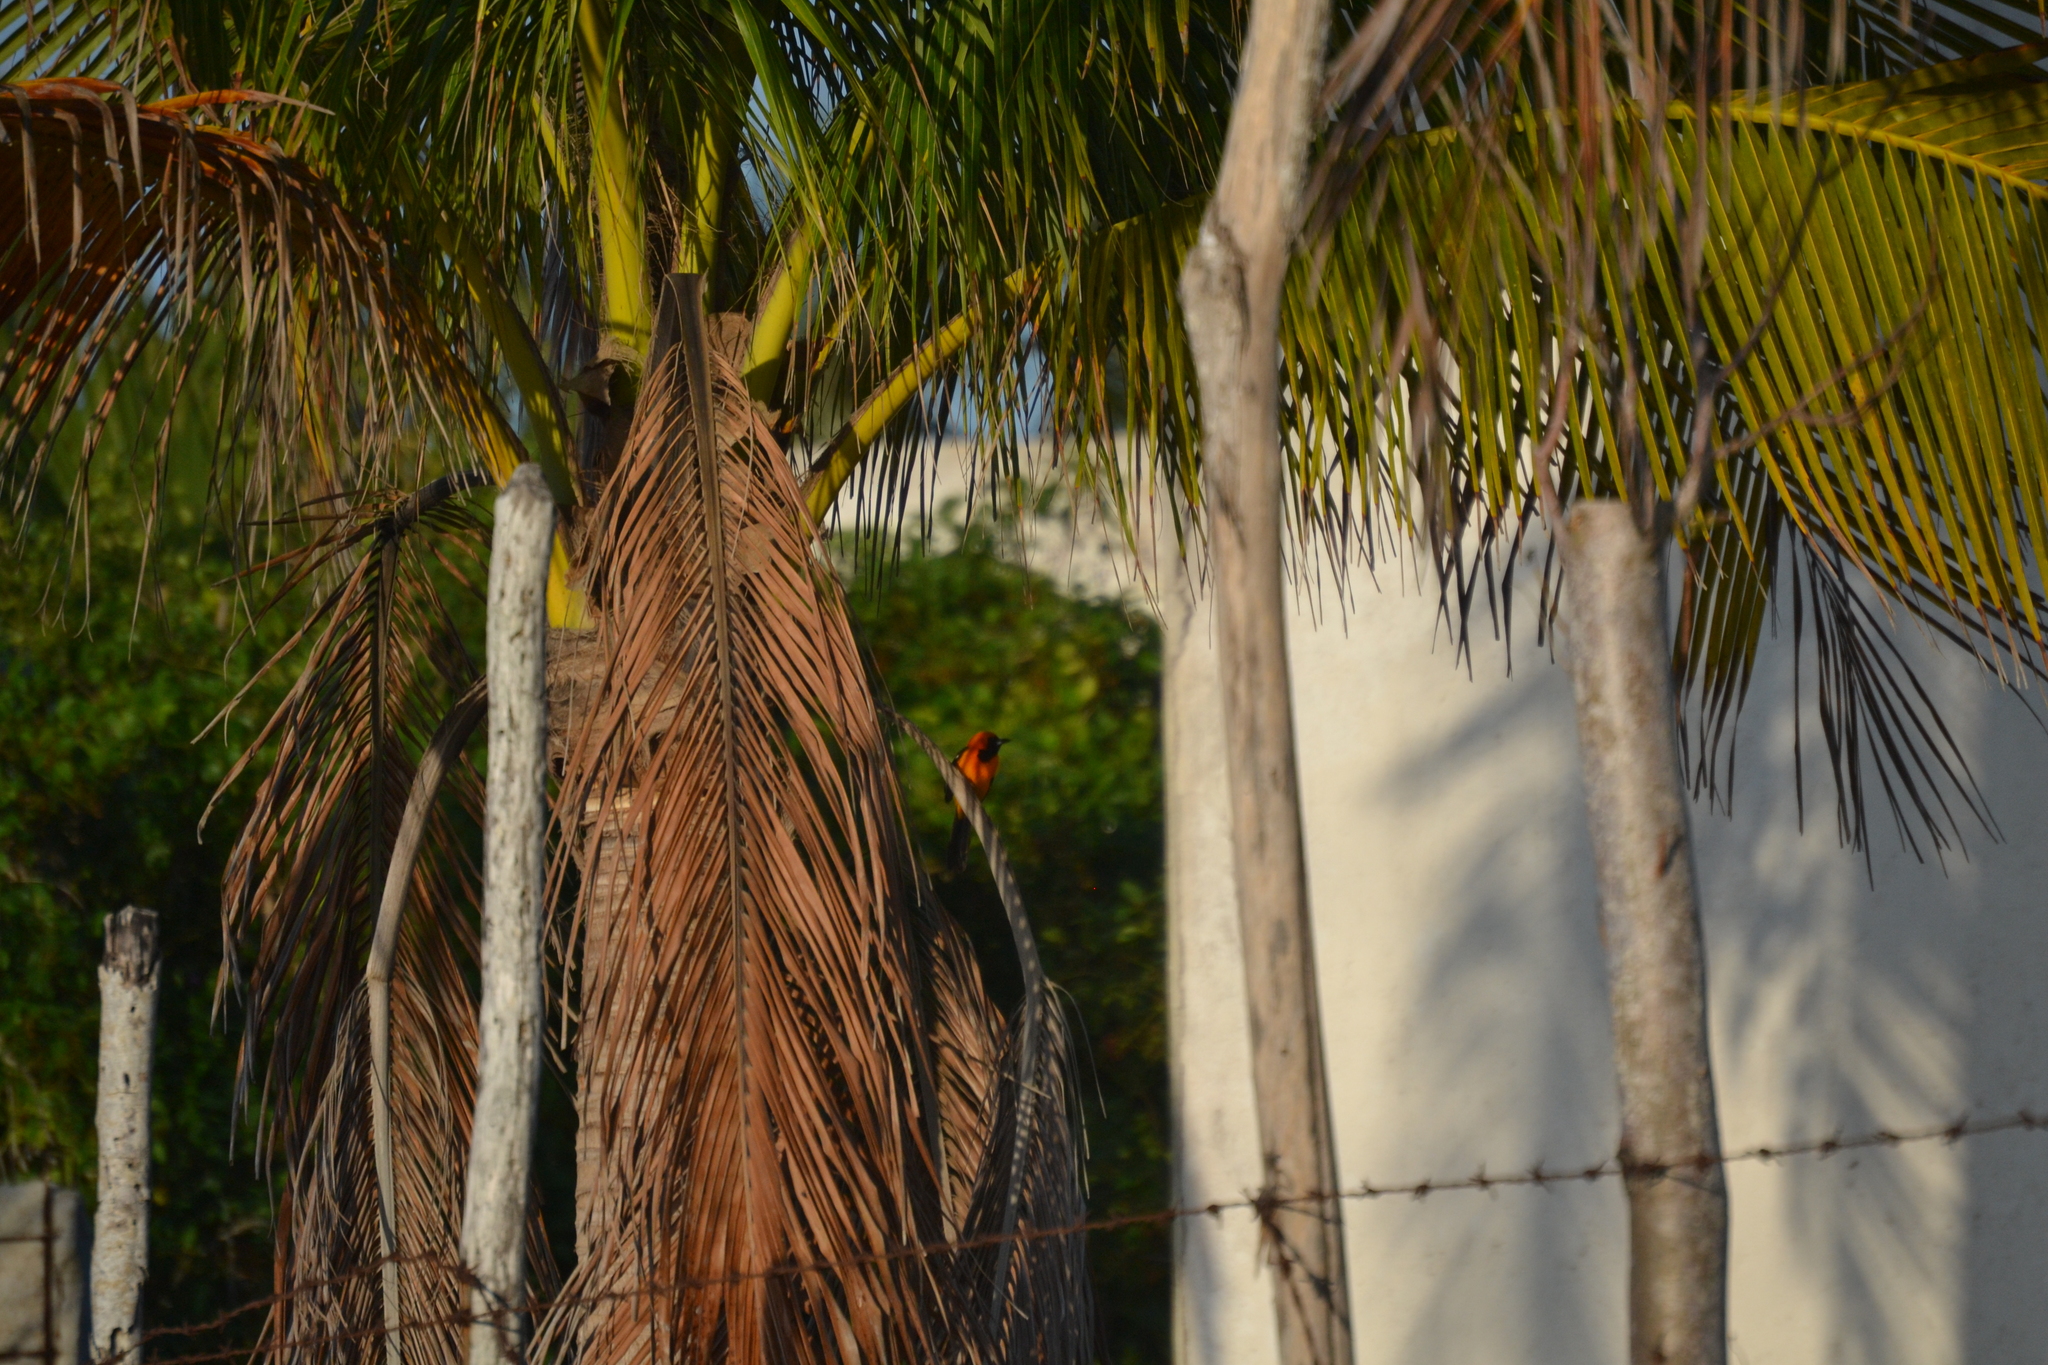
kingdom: Animalia
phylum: Chordata
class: Aves
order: Passeriformes
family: Icteridae
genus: Icterus
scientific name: Icterus cucullatus
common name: Hooded oriole
